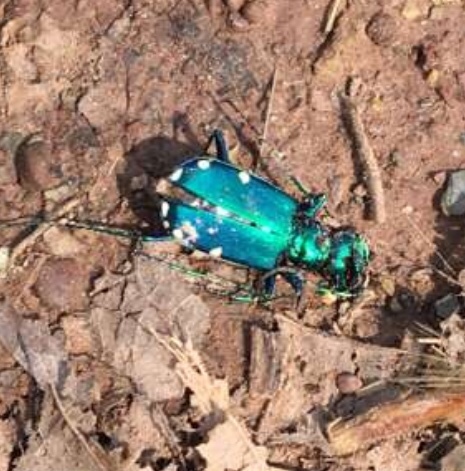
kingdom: Animalia
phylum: Arthropoda
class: Insecta
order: Coleoptera
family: Carabidae
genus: Cicindela
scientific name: Cicindela sexguttata
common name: Six-spotted tiger beetle
